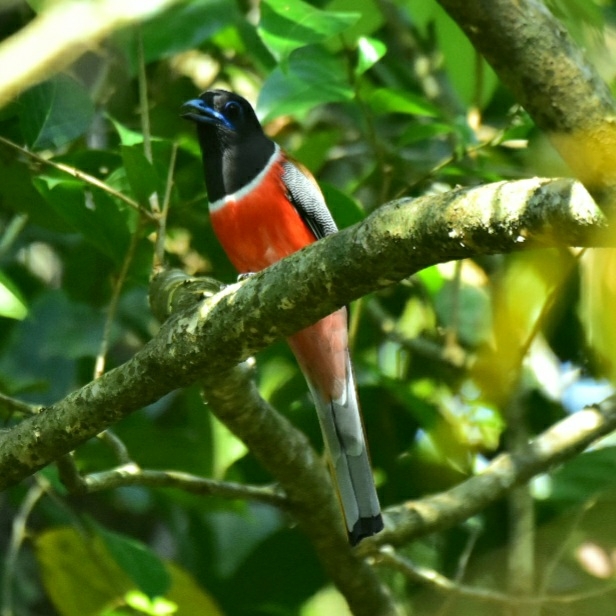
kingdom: Animalia
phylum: Chordata
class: Aves
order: Trogoniformes
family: Trogonidae
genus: Harpactes
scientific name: Harpactes fasciatus
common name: Malabar trogon
